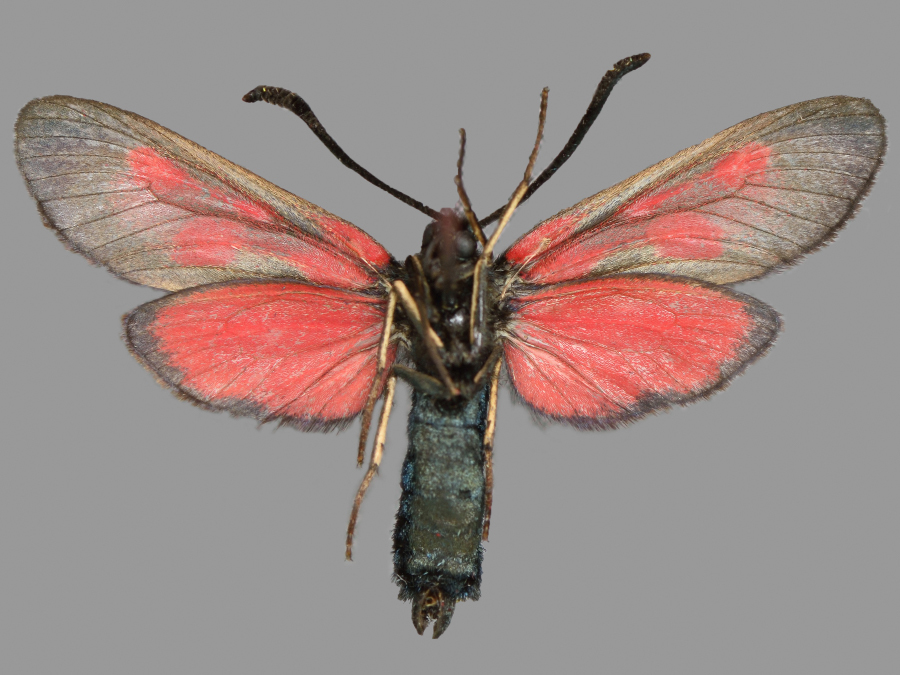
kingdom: Animalia
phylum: Arthropoda
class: Insecta
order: Lepidoptera
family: Zygaenidae
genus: Zygaena
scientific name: Zygaena viciae
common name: New forest burnet
